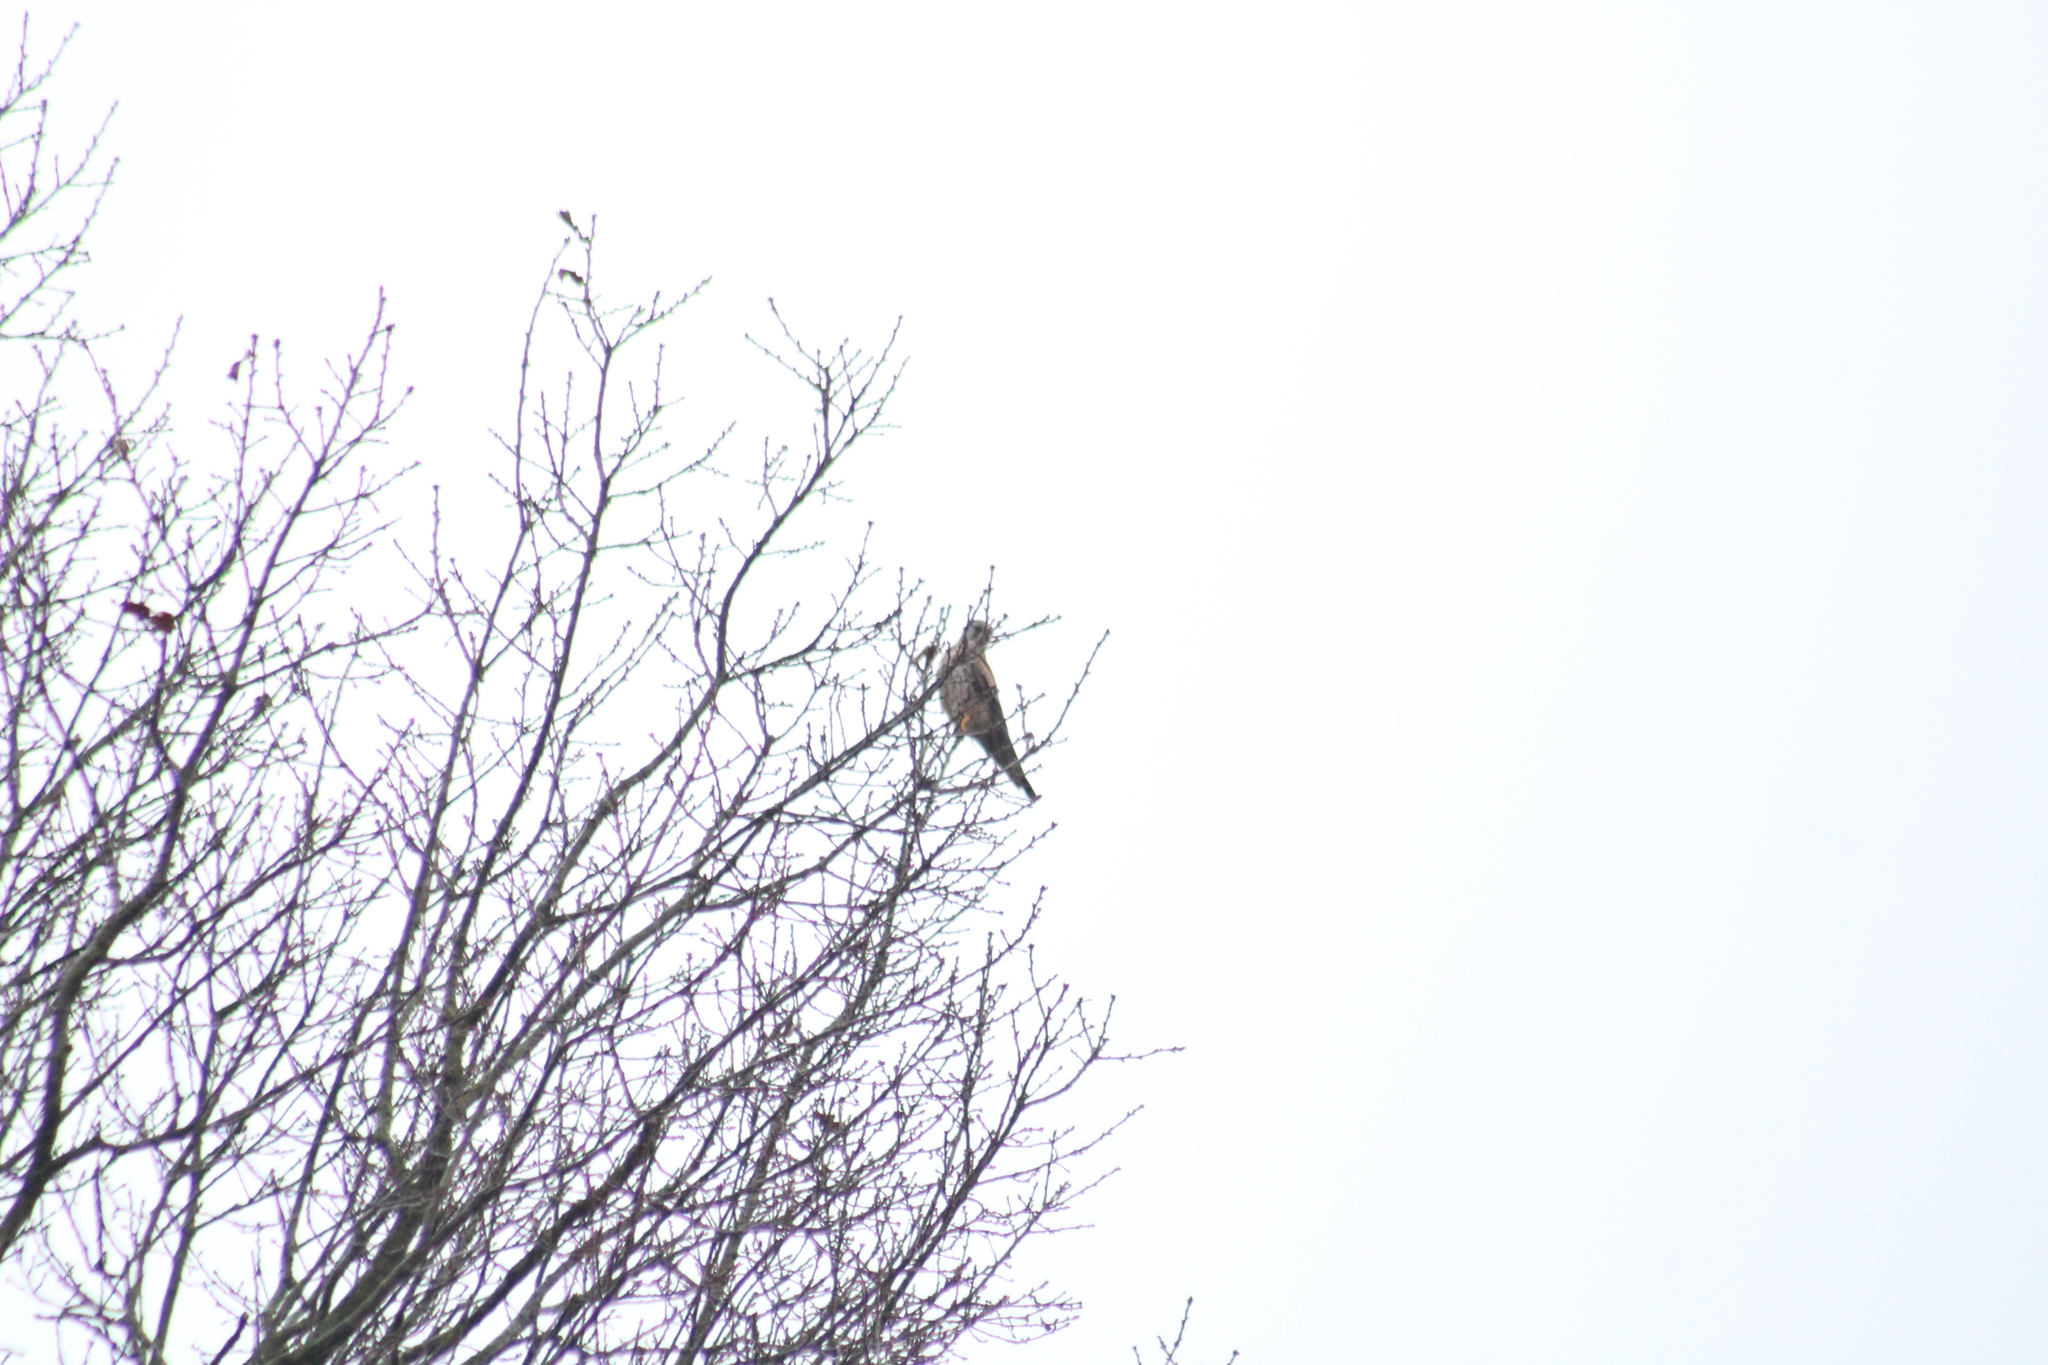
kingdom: Animalia
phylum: Chordata
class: Aves
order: Falconiformes
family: Falconidae
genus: Falco
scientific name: Falco tinnunculus
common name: Common kestrel
